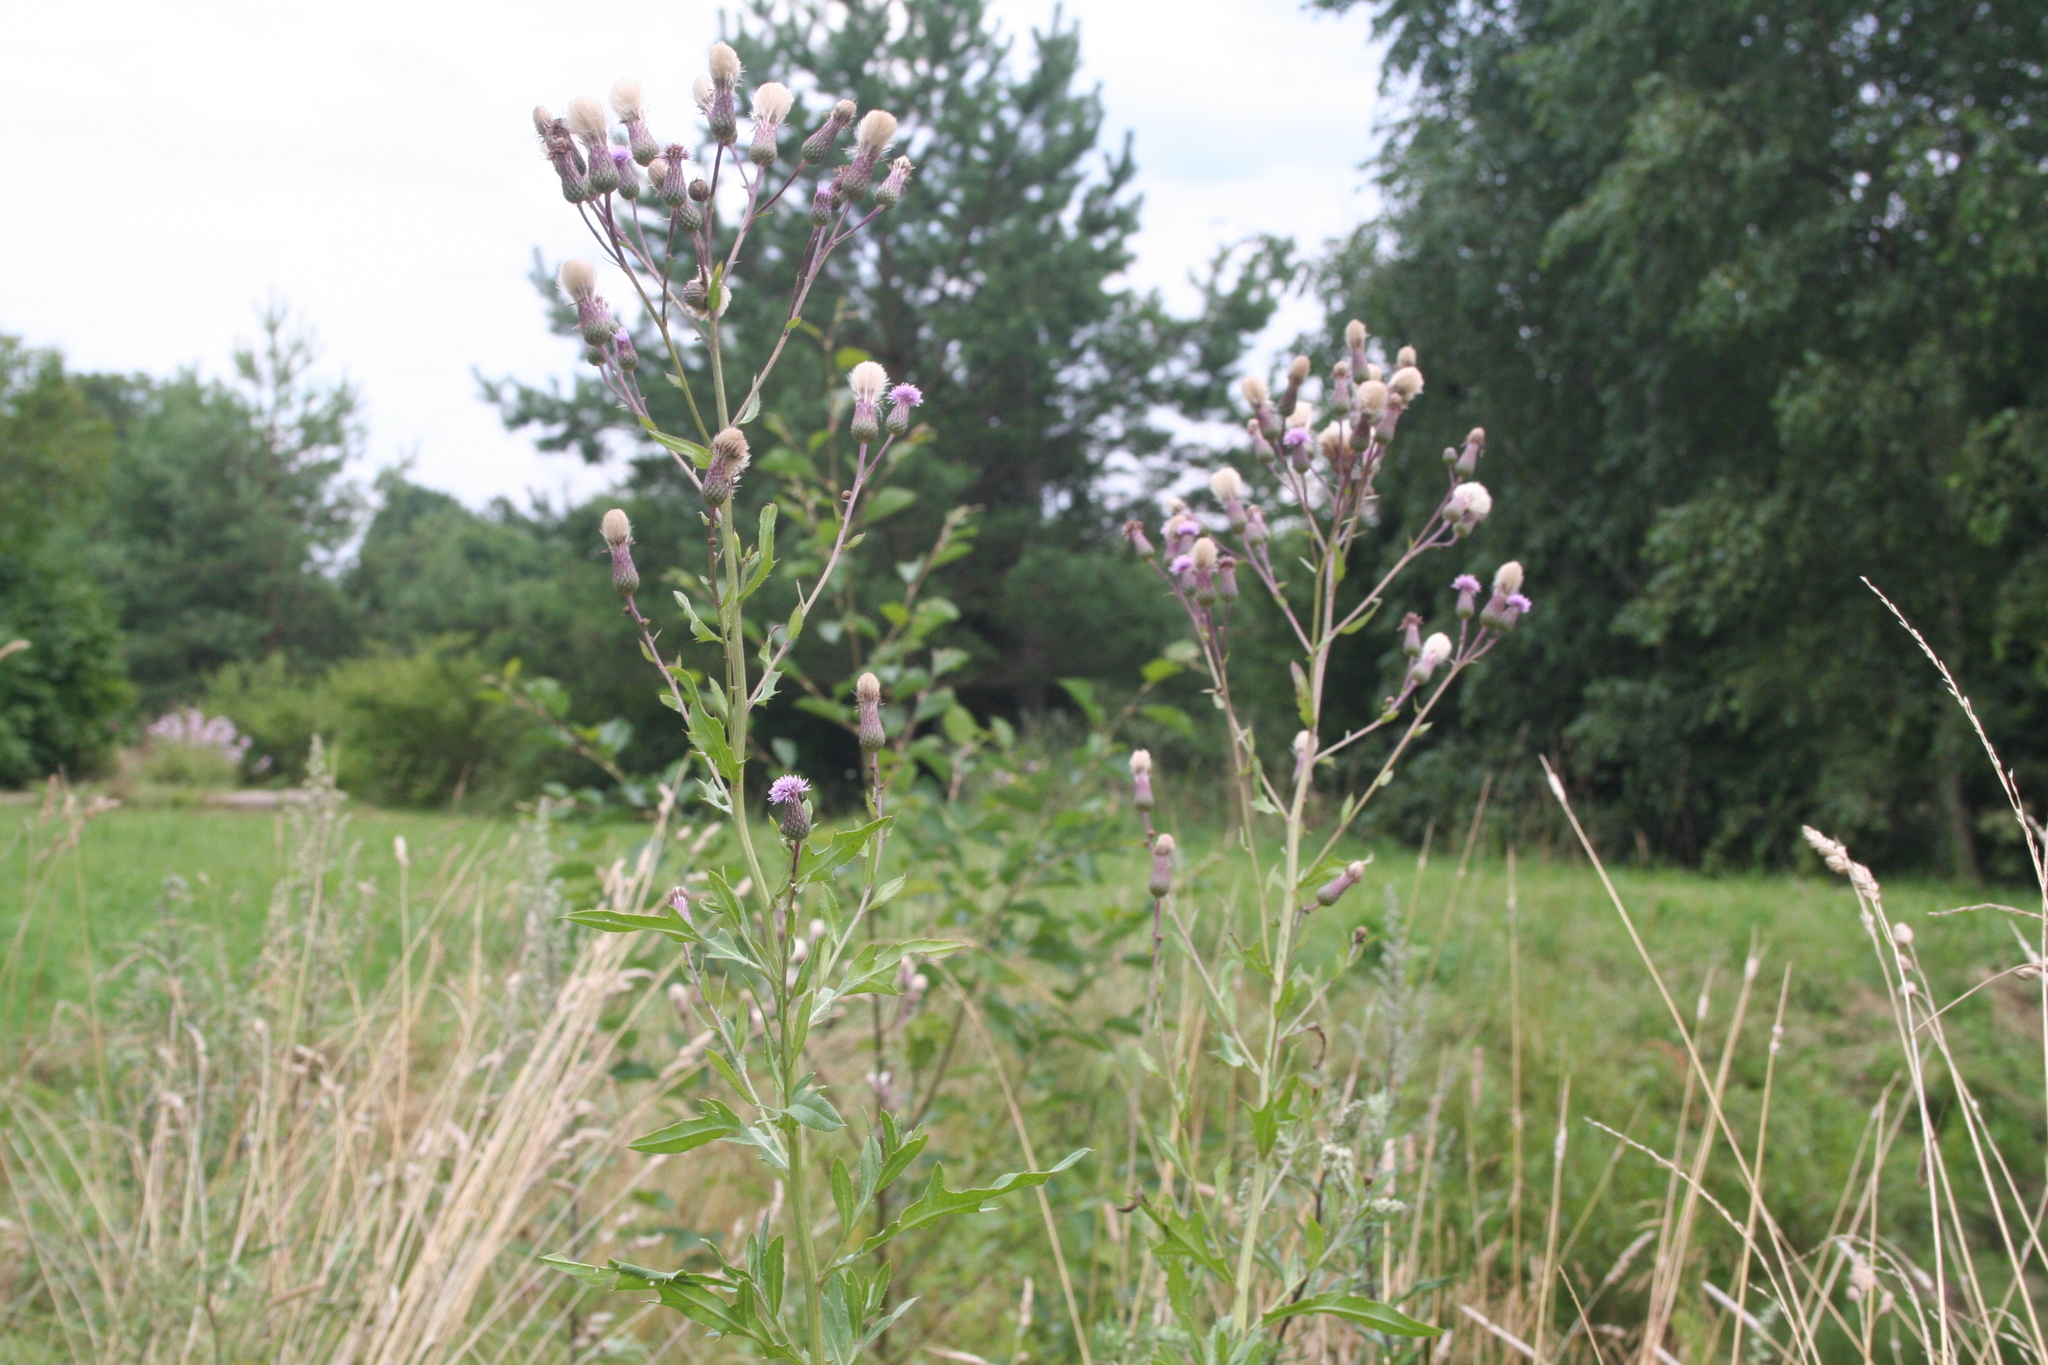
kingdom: Plantae
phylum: Tracheophyta
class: Magnoliopsida
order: Asterales
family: Asteraceae
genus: Cirsium
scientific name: Cirsium arvense
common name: Creeping thistle
